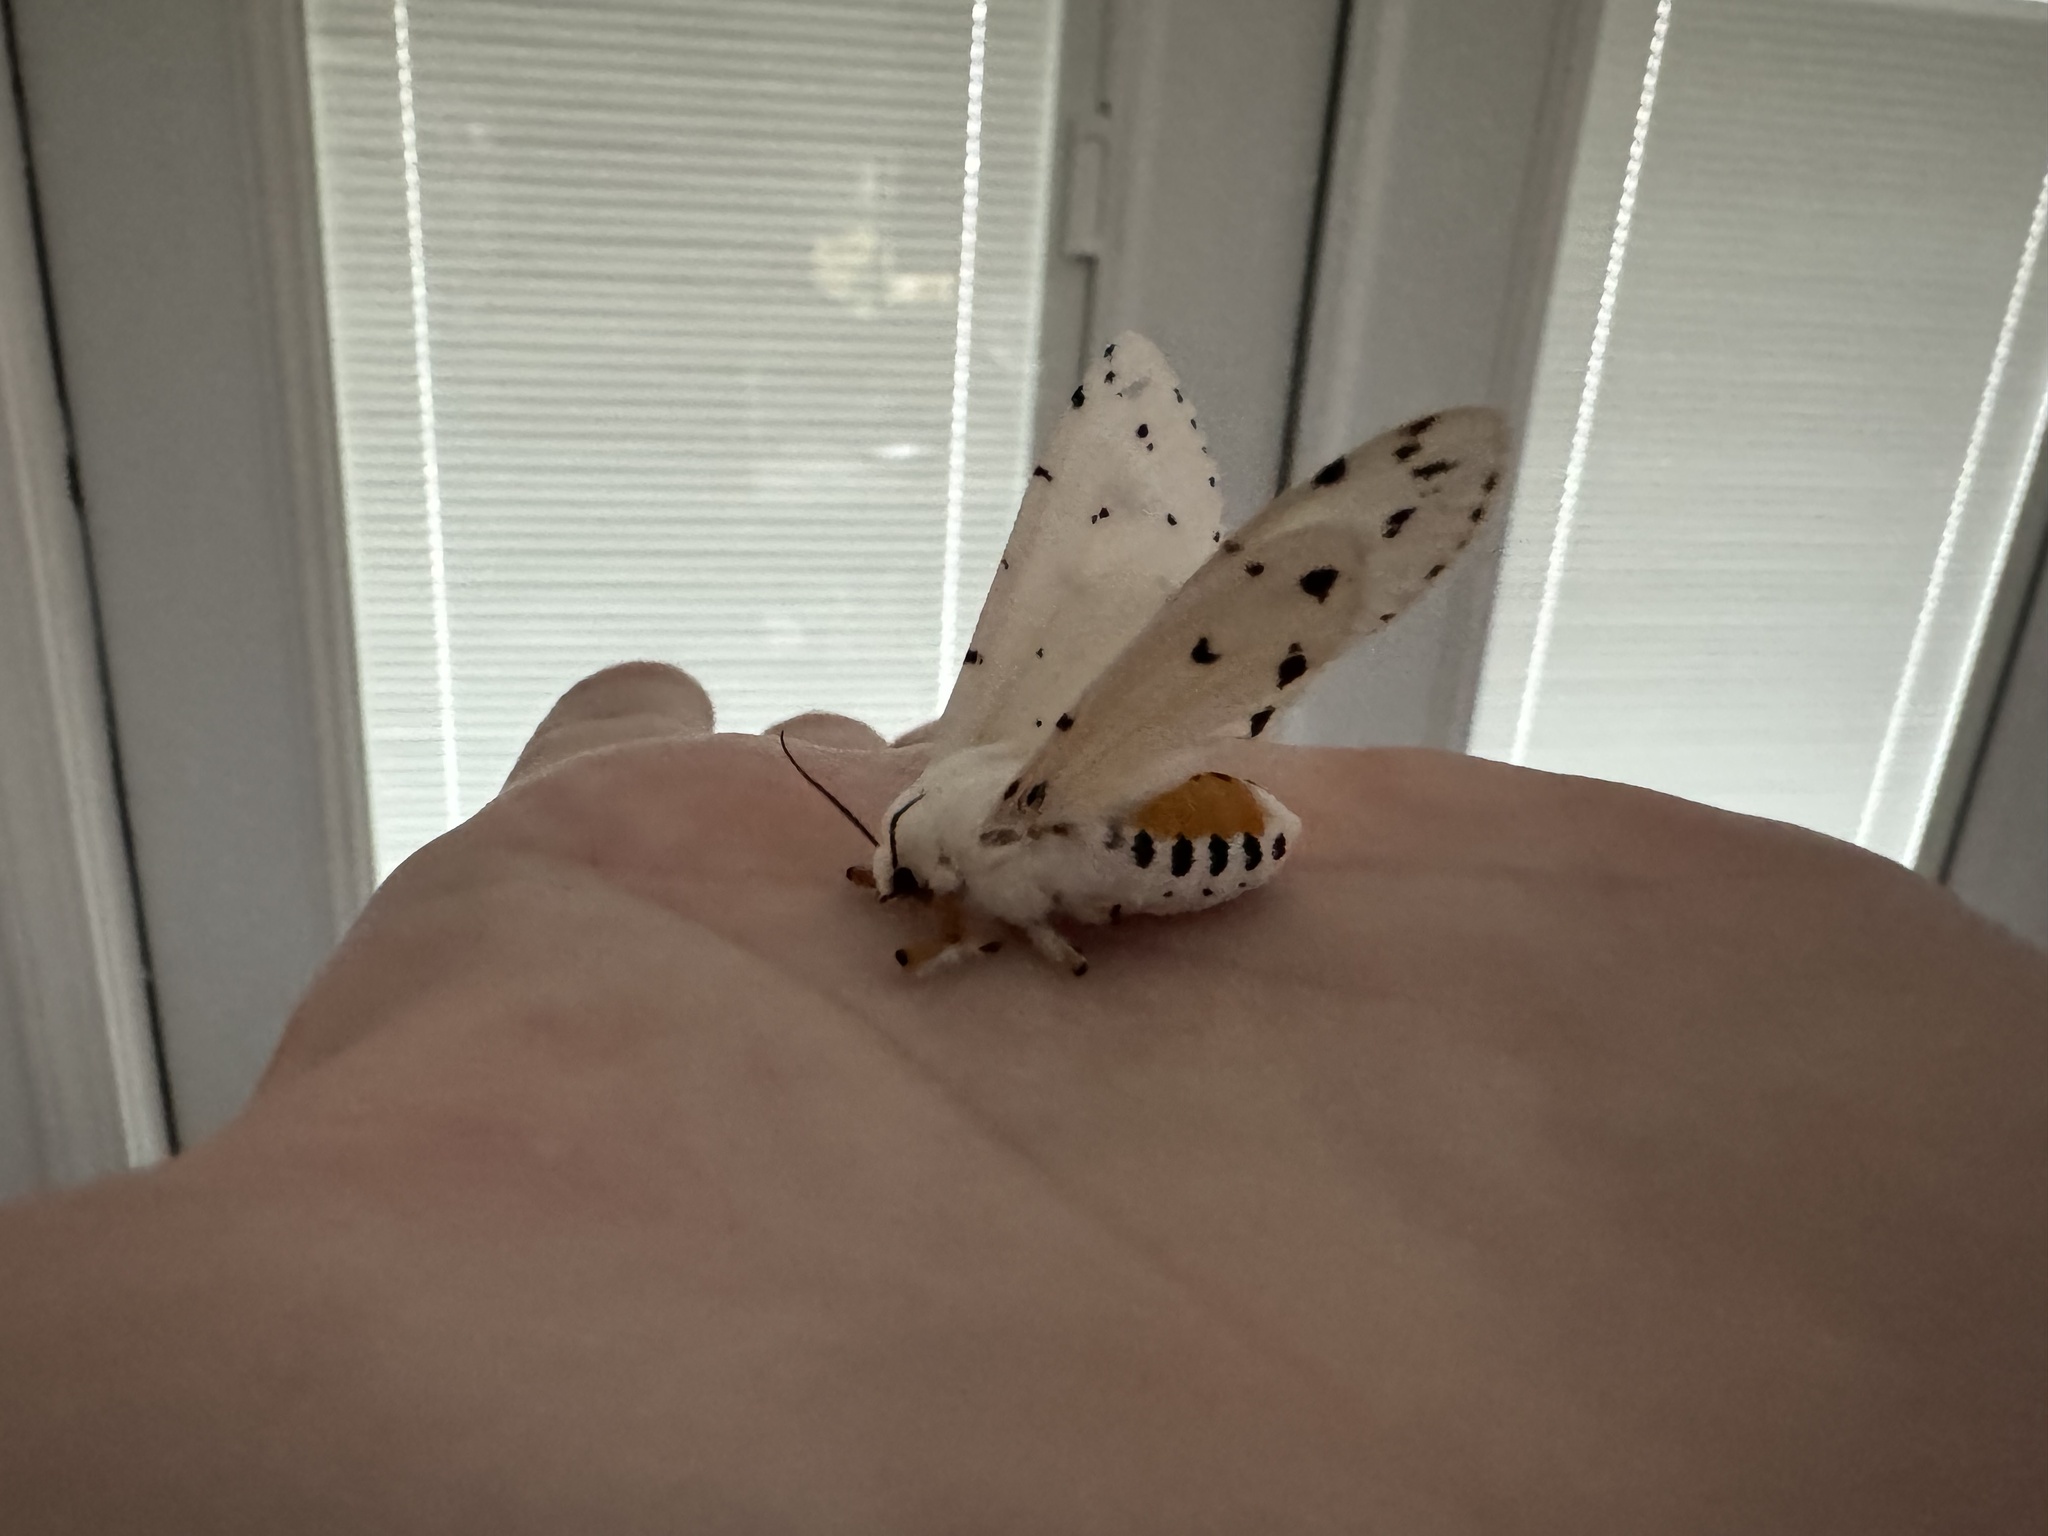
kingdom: Animalia
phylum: Arthropoda
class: Insecta
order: Lepidoptera
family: Erebidae
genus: Estigmene
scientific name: Estigmene acrea
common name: Salt marsh moth
